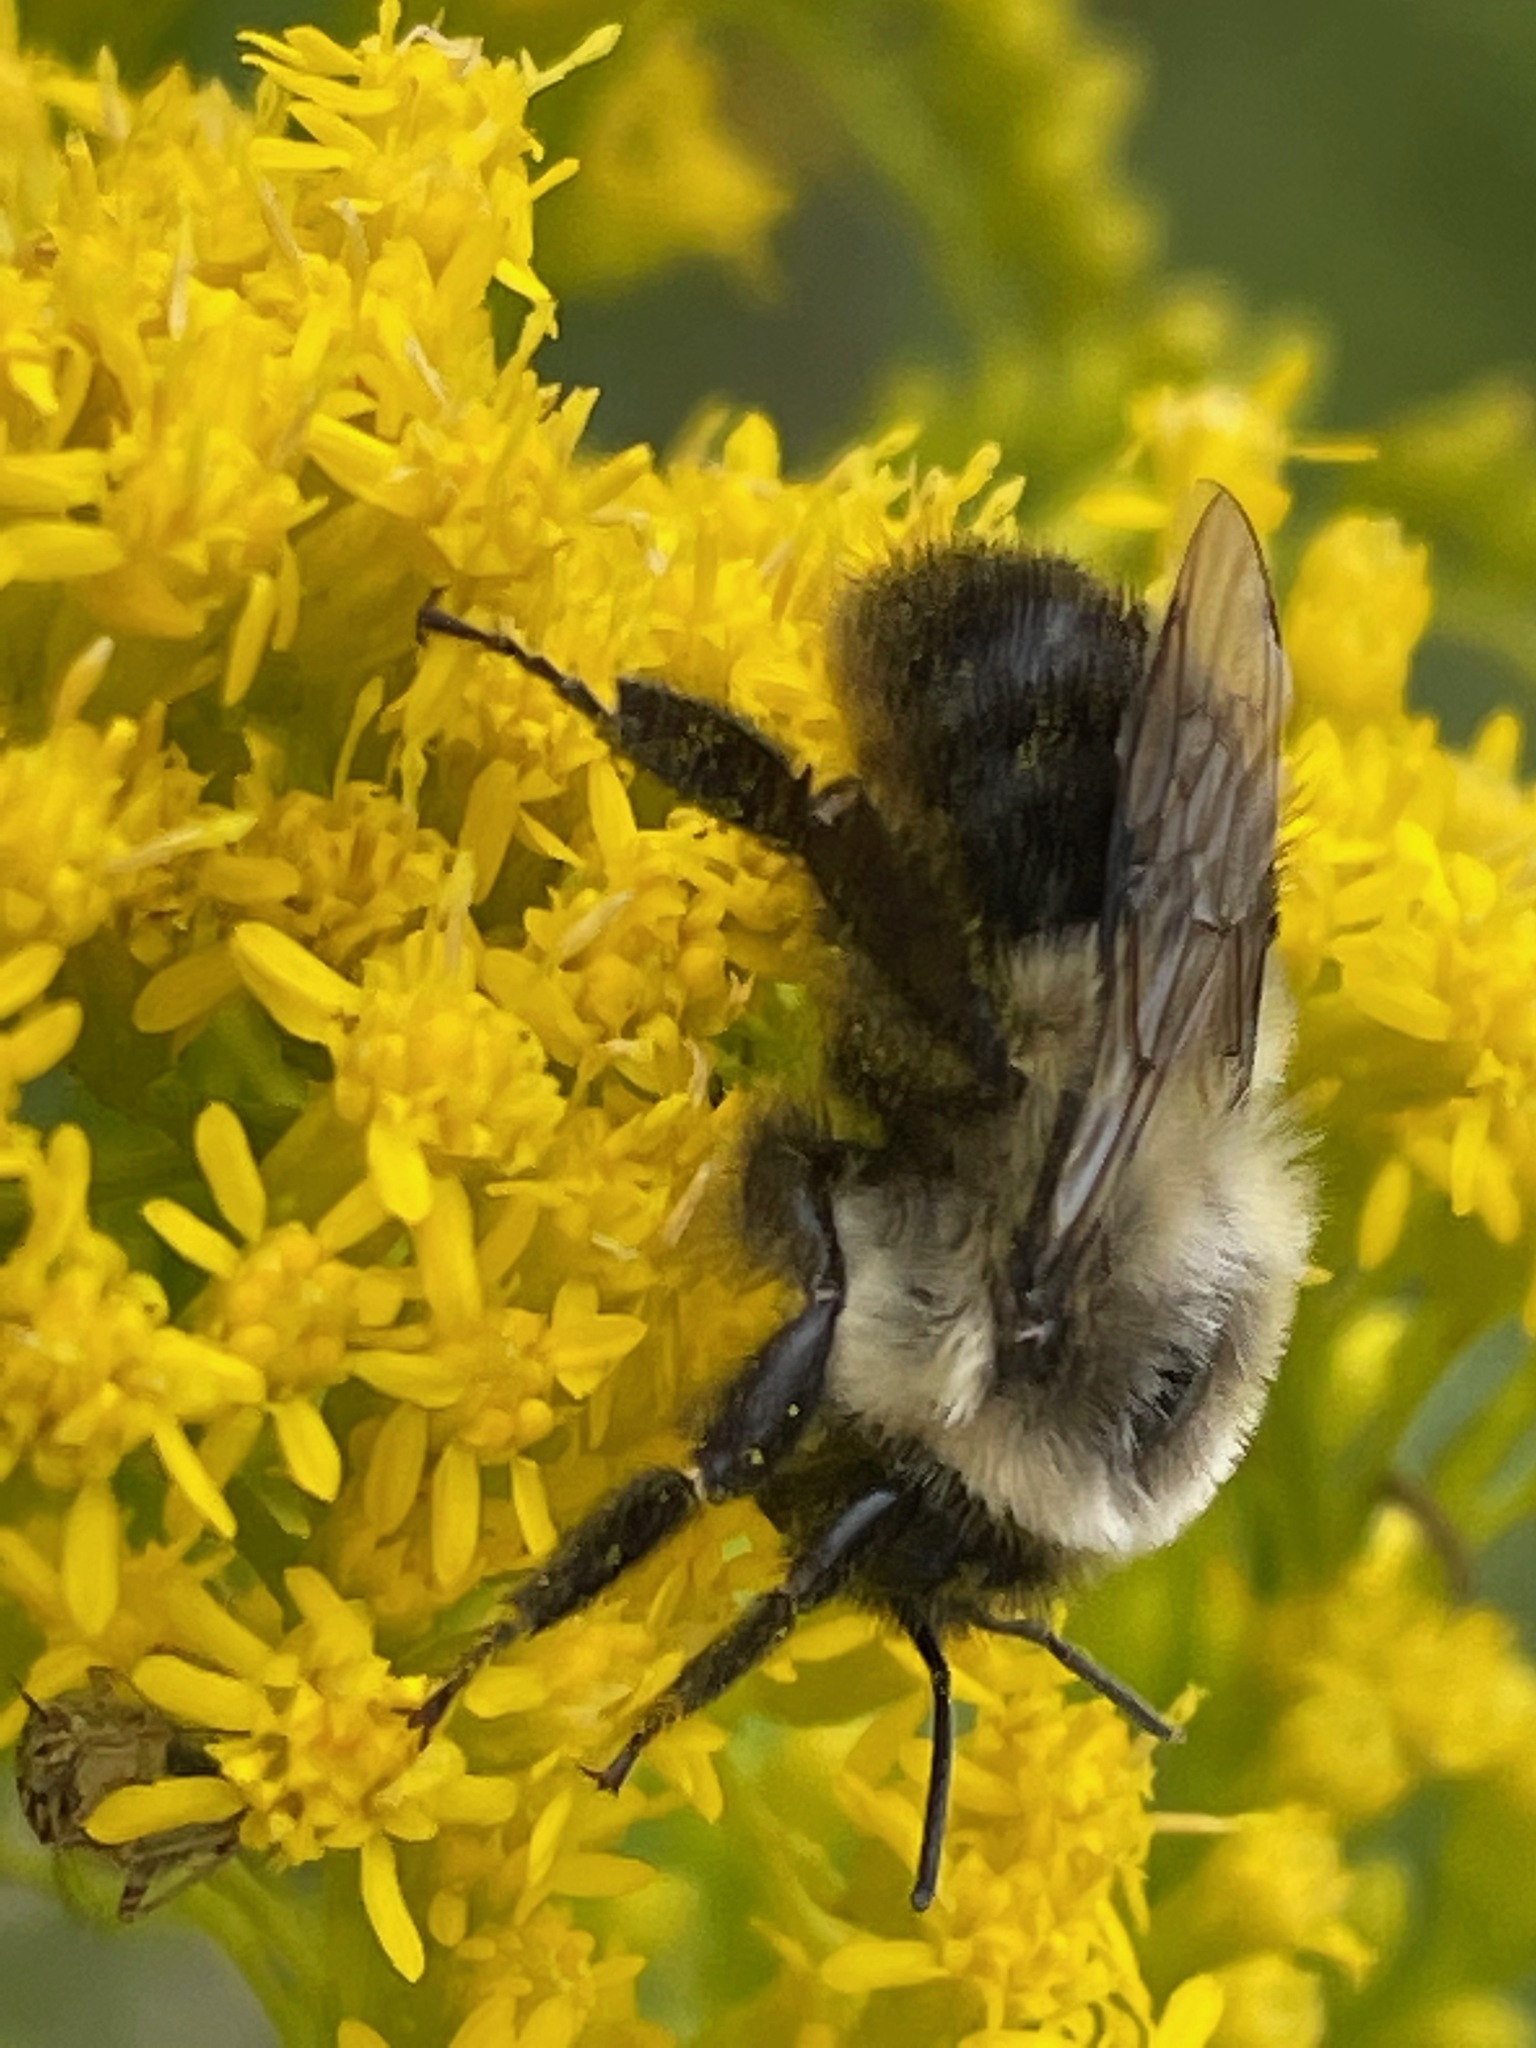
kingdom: Animalia
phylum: Arthropoda
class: Insecta
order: Hymenoptera
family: Apidae
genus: Bombus
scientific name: Bombus impatiens
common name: Common eastern bumble bee
